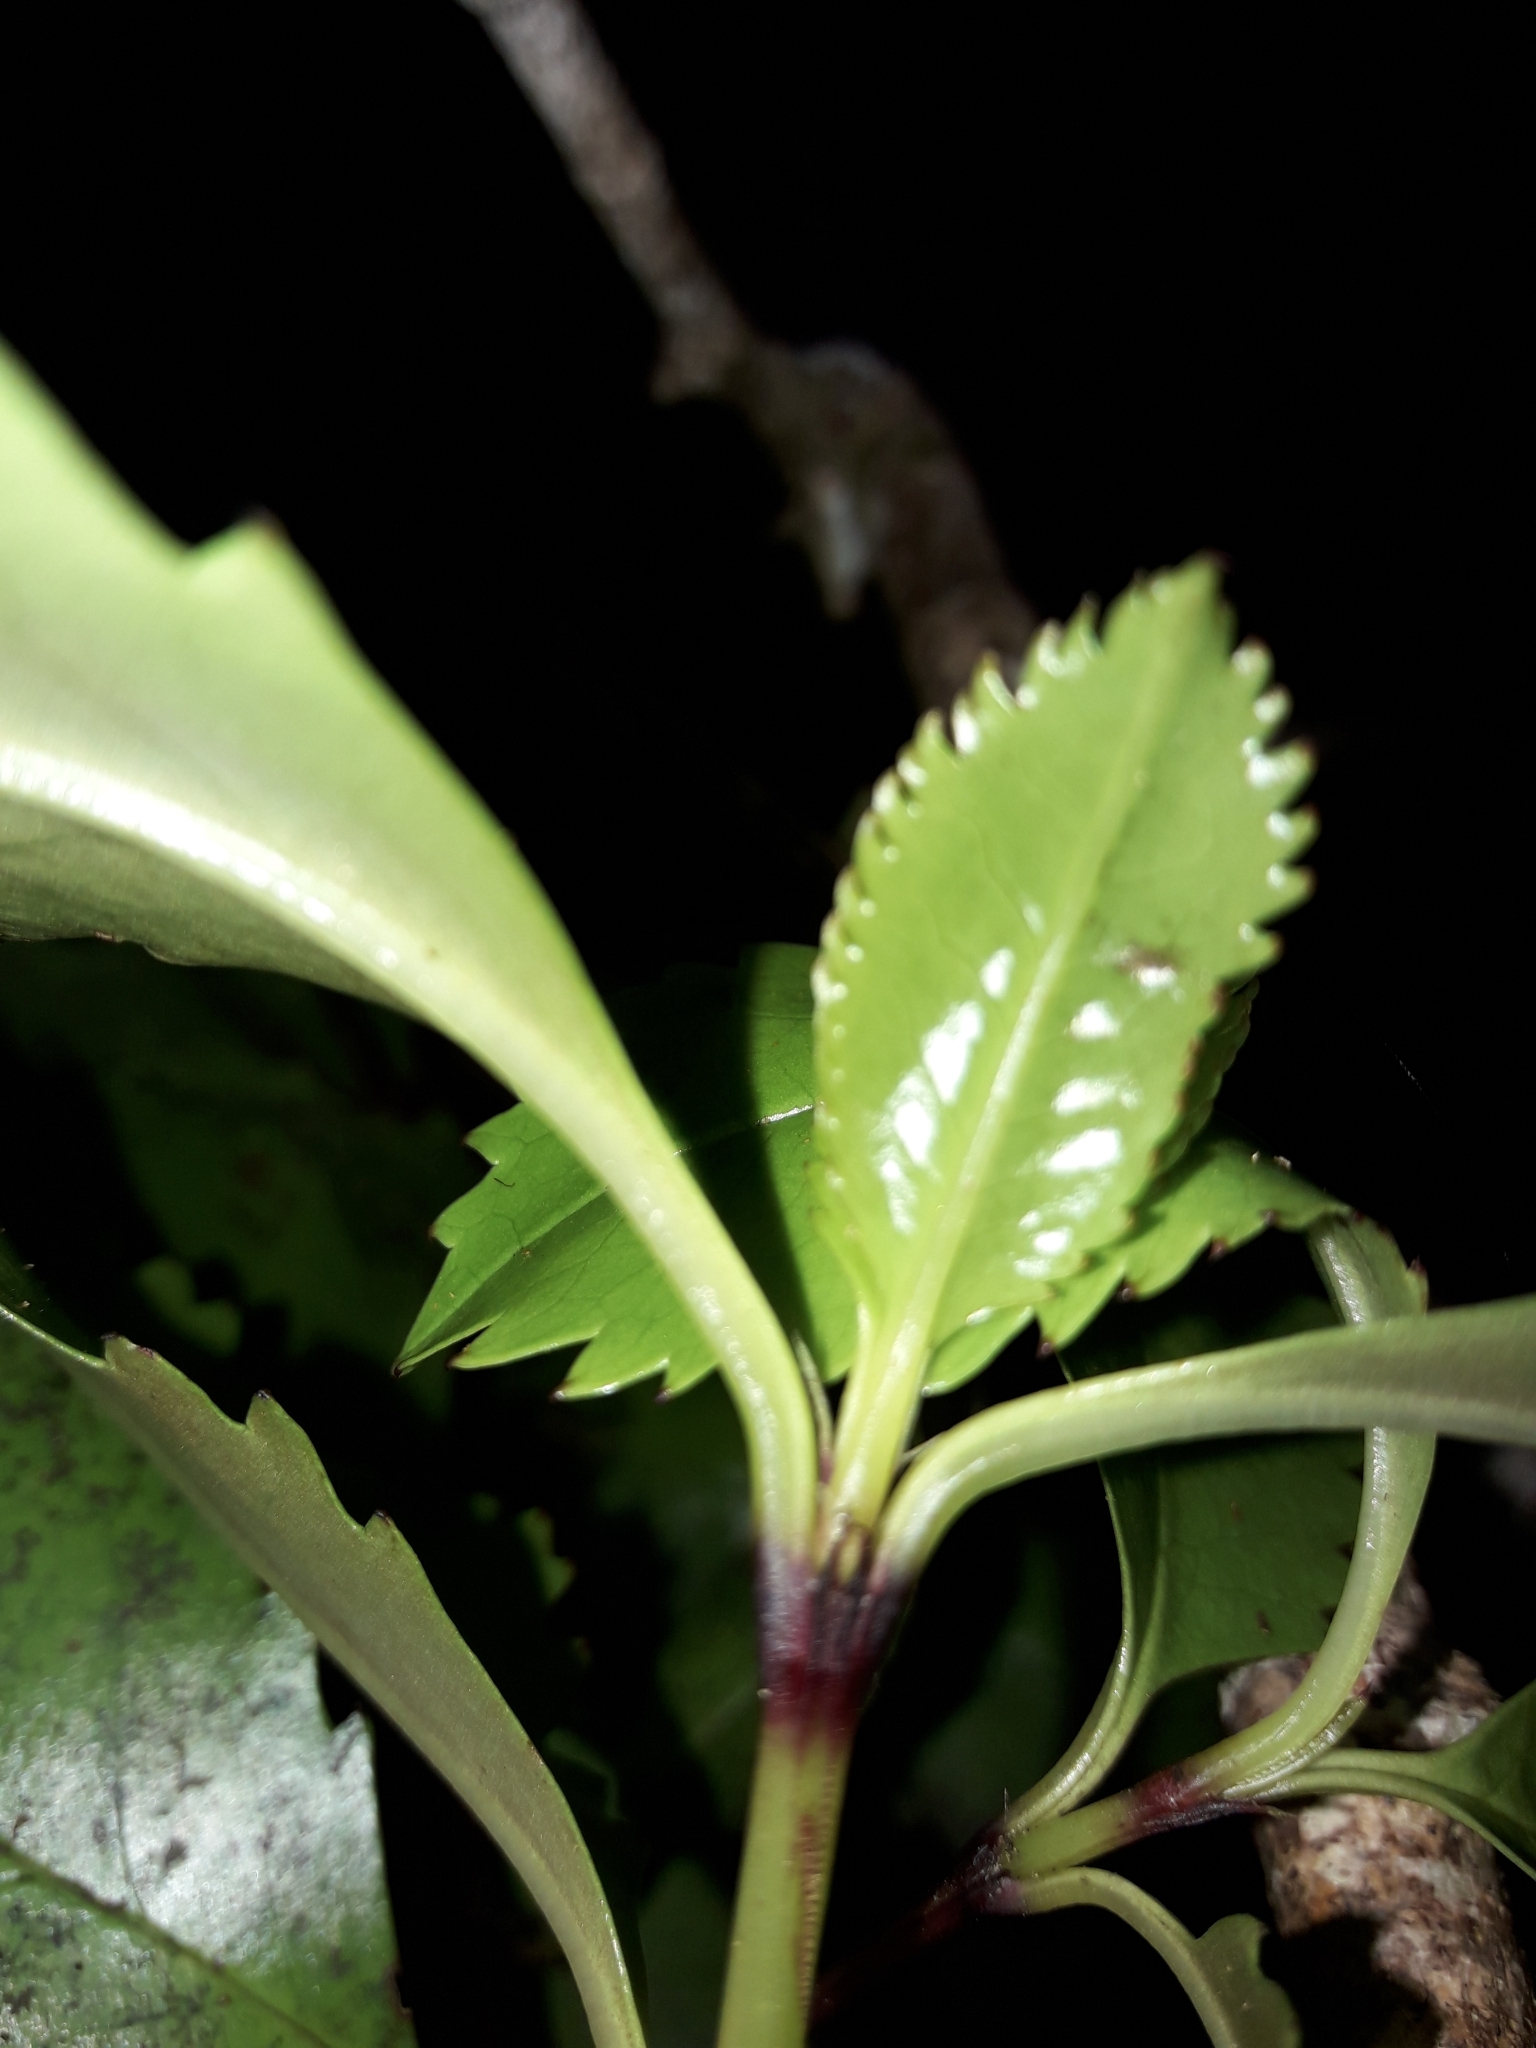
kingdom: Plantae
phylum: Tracheophyta
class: Magnoliopsida
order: Chloranthales
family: Chloranthaceae
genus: Ascarina
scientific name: Ascarina lucida
